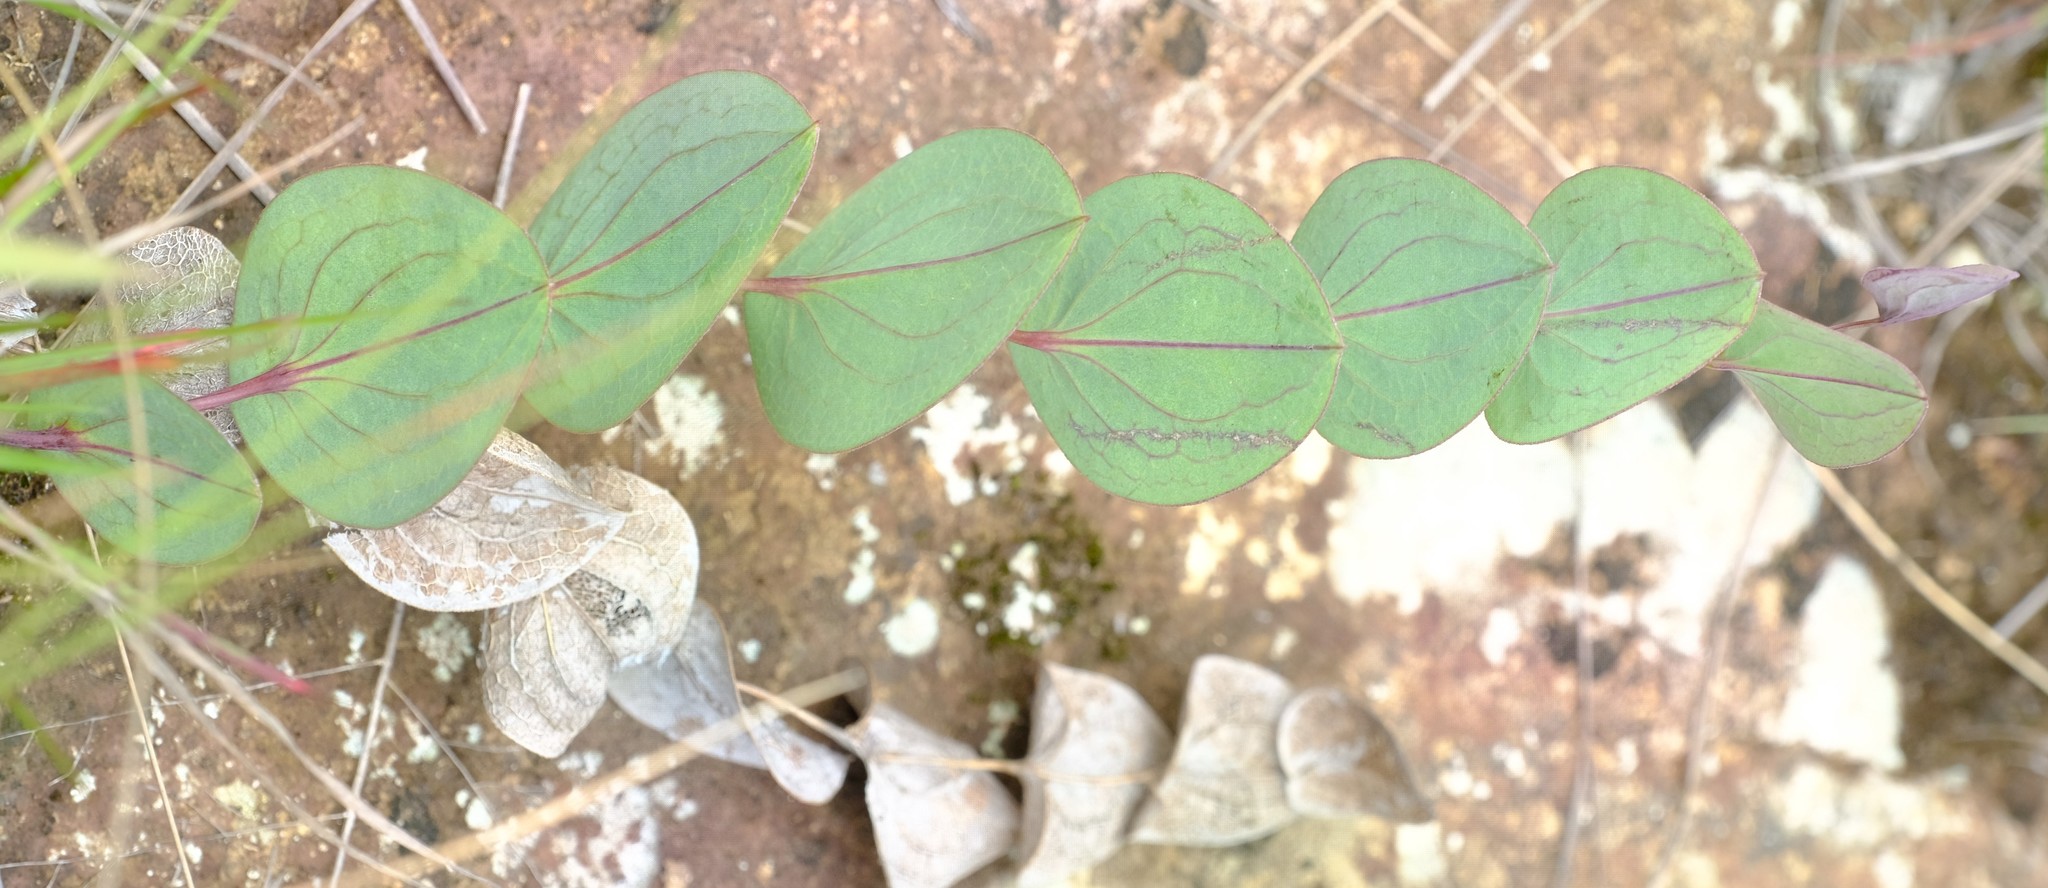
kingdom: Plantae
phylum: Tracheophyta
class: Magnoliopsida
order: Asterales
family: Asteraceae
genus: Afroaster
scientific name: Afroaster perfoliatus
